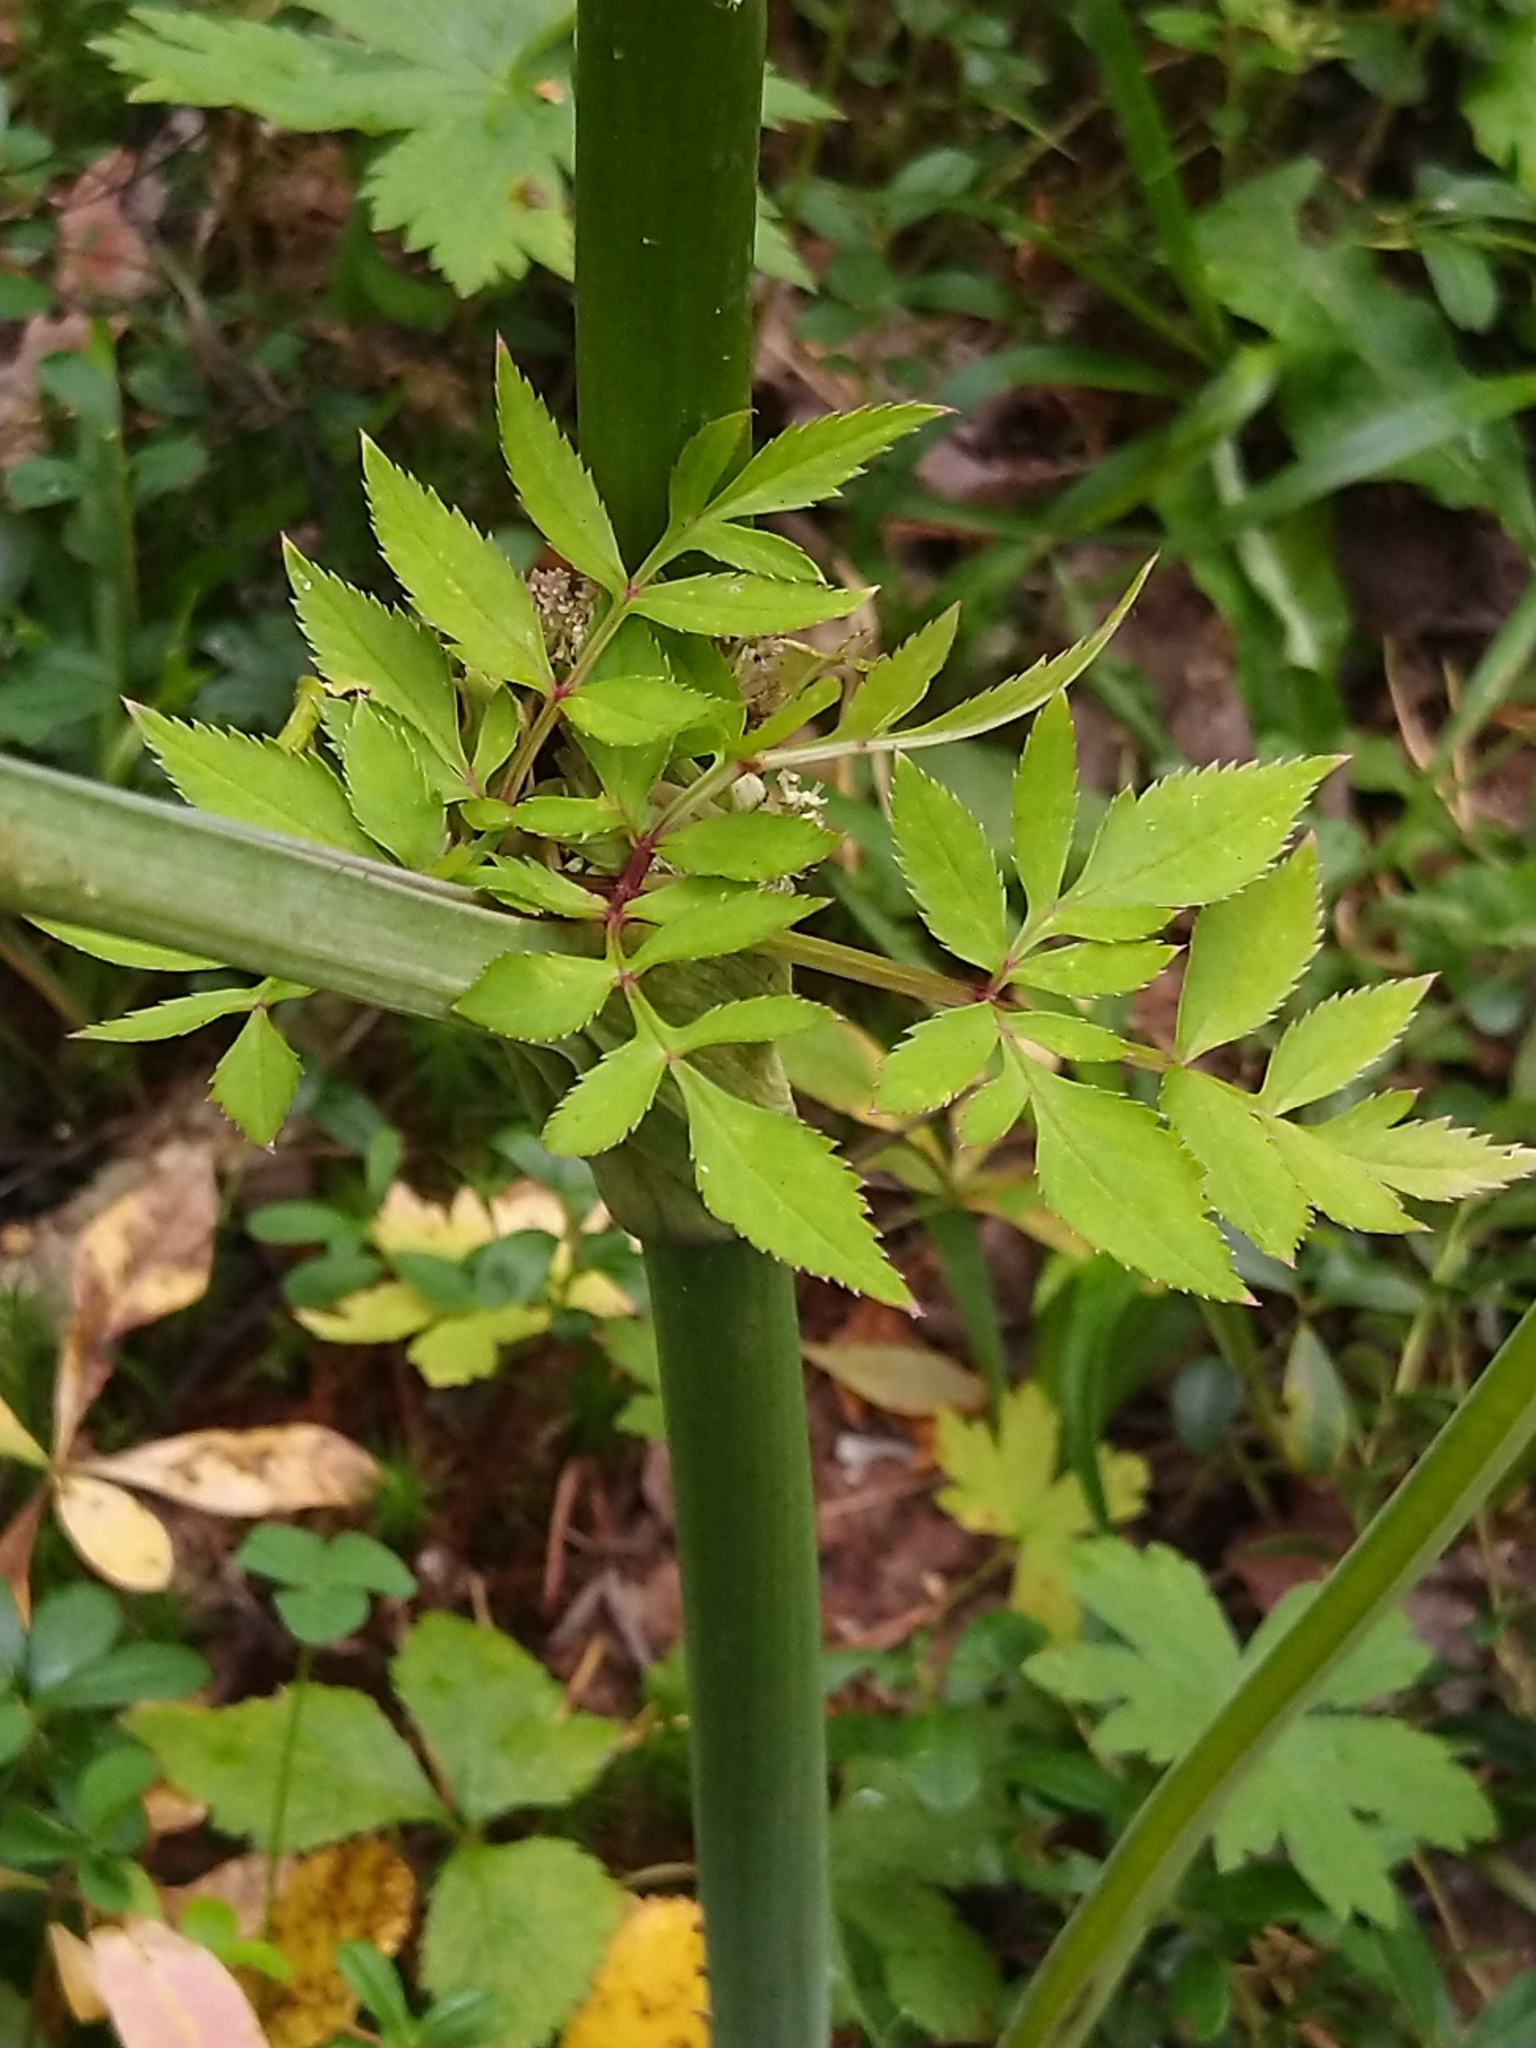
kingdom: Plantae
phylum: Tracheophyta
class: Magnoliopsida
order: Apiales
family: Apiaceae
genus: Angelica
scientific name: Angelica sylvestris
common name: Wild angelica
